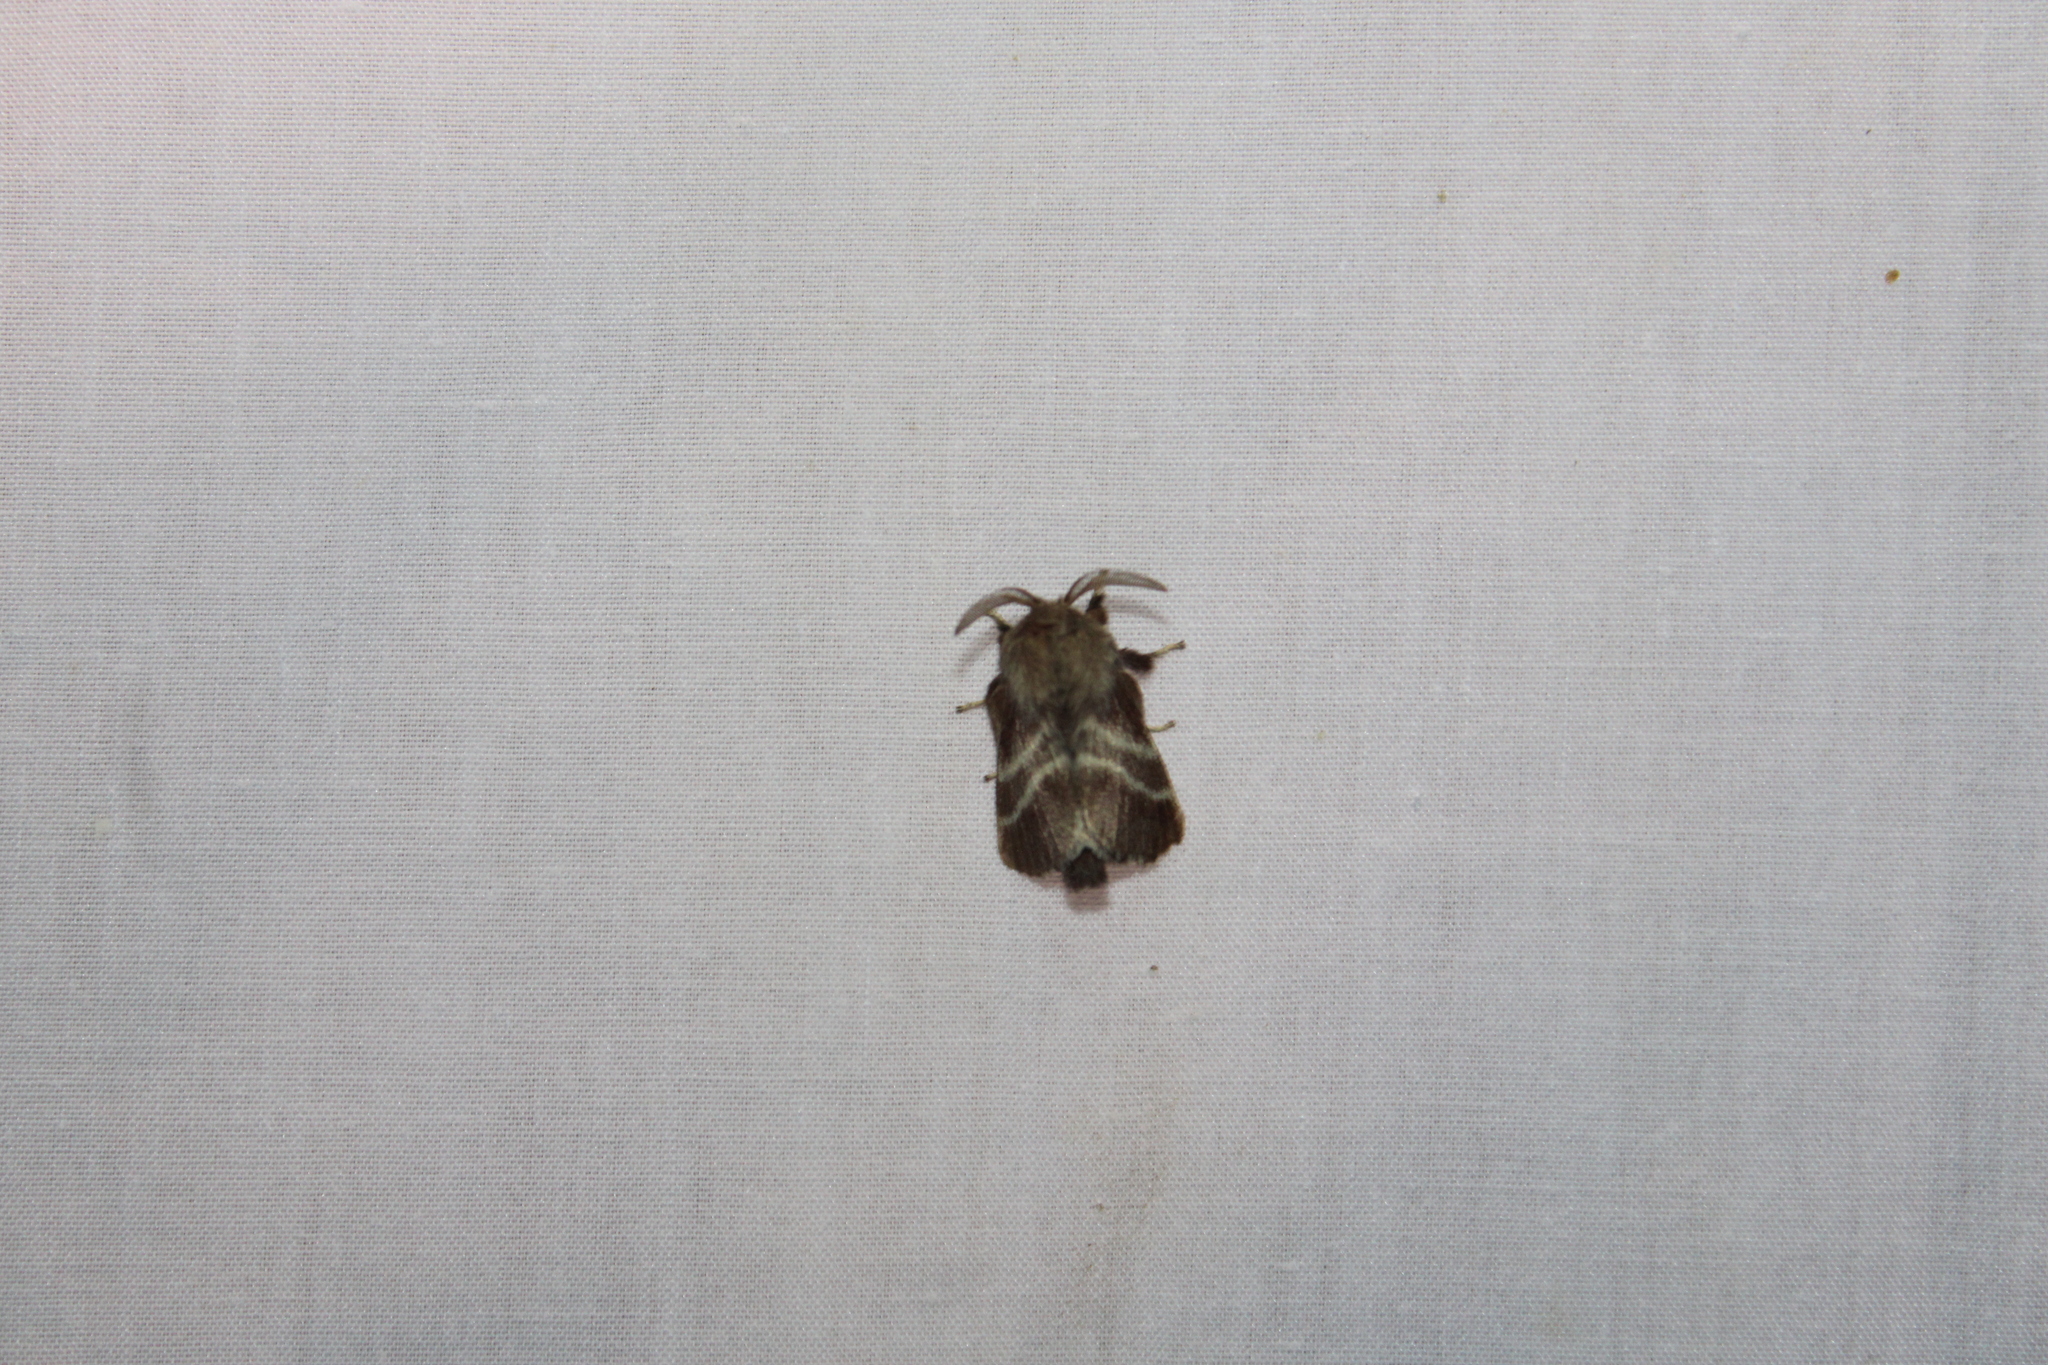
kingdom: Animalia
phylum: Arthropoda
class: Insecta
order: Lepidoptera
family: Lasiocampidae
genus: Malacosoma
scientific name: Malacosoma americana
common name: Eastern tent caterpillar moth
